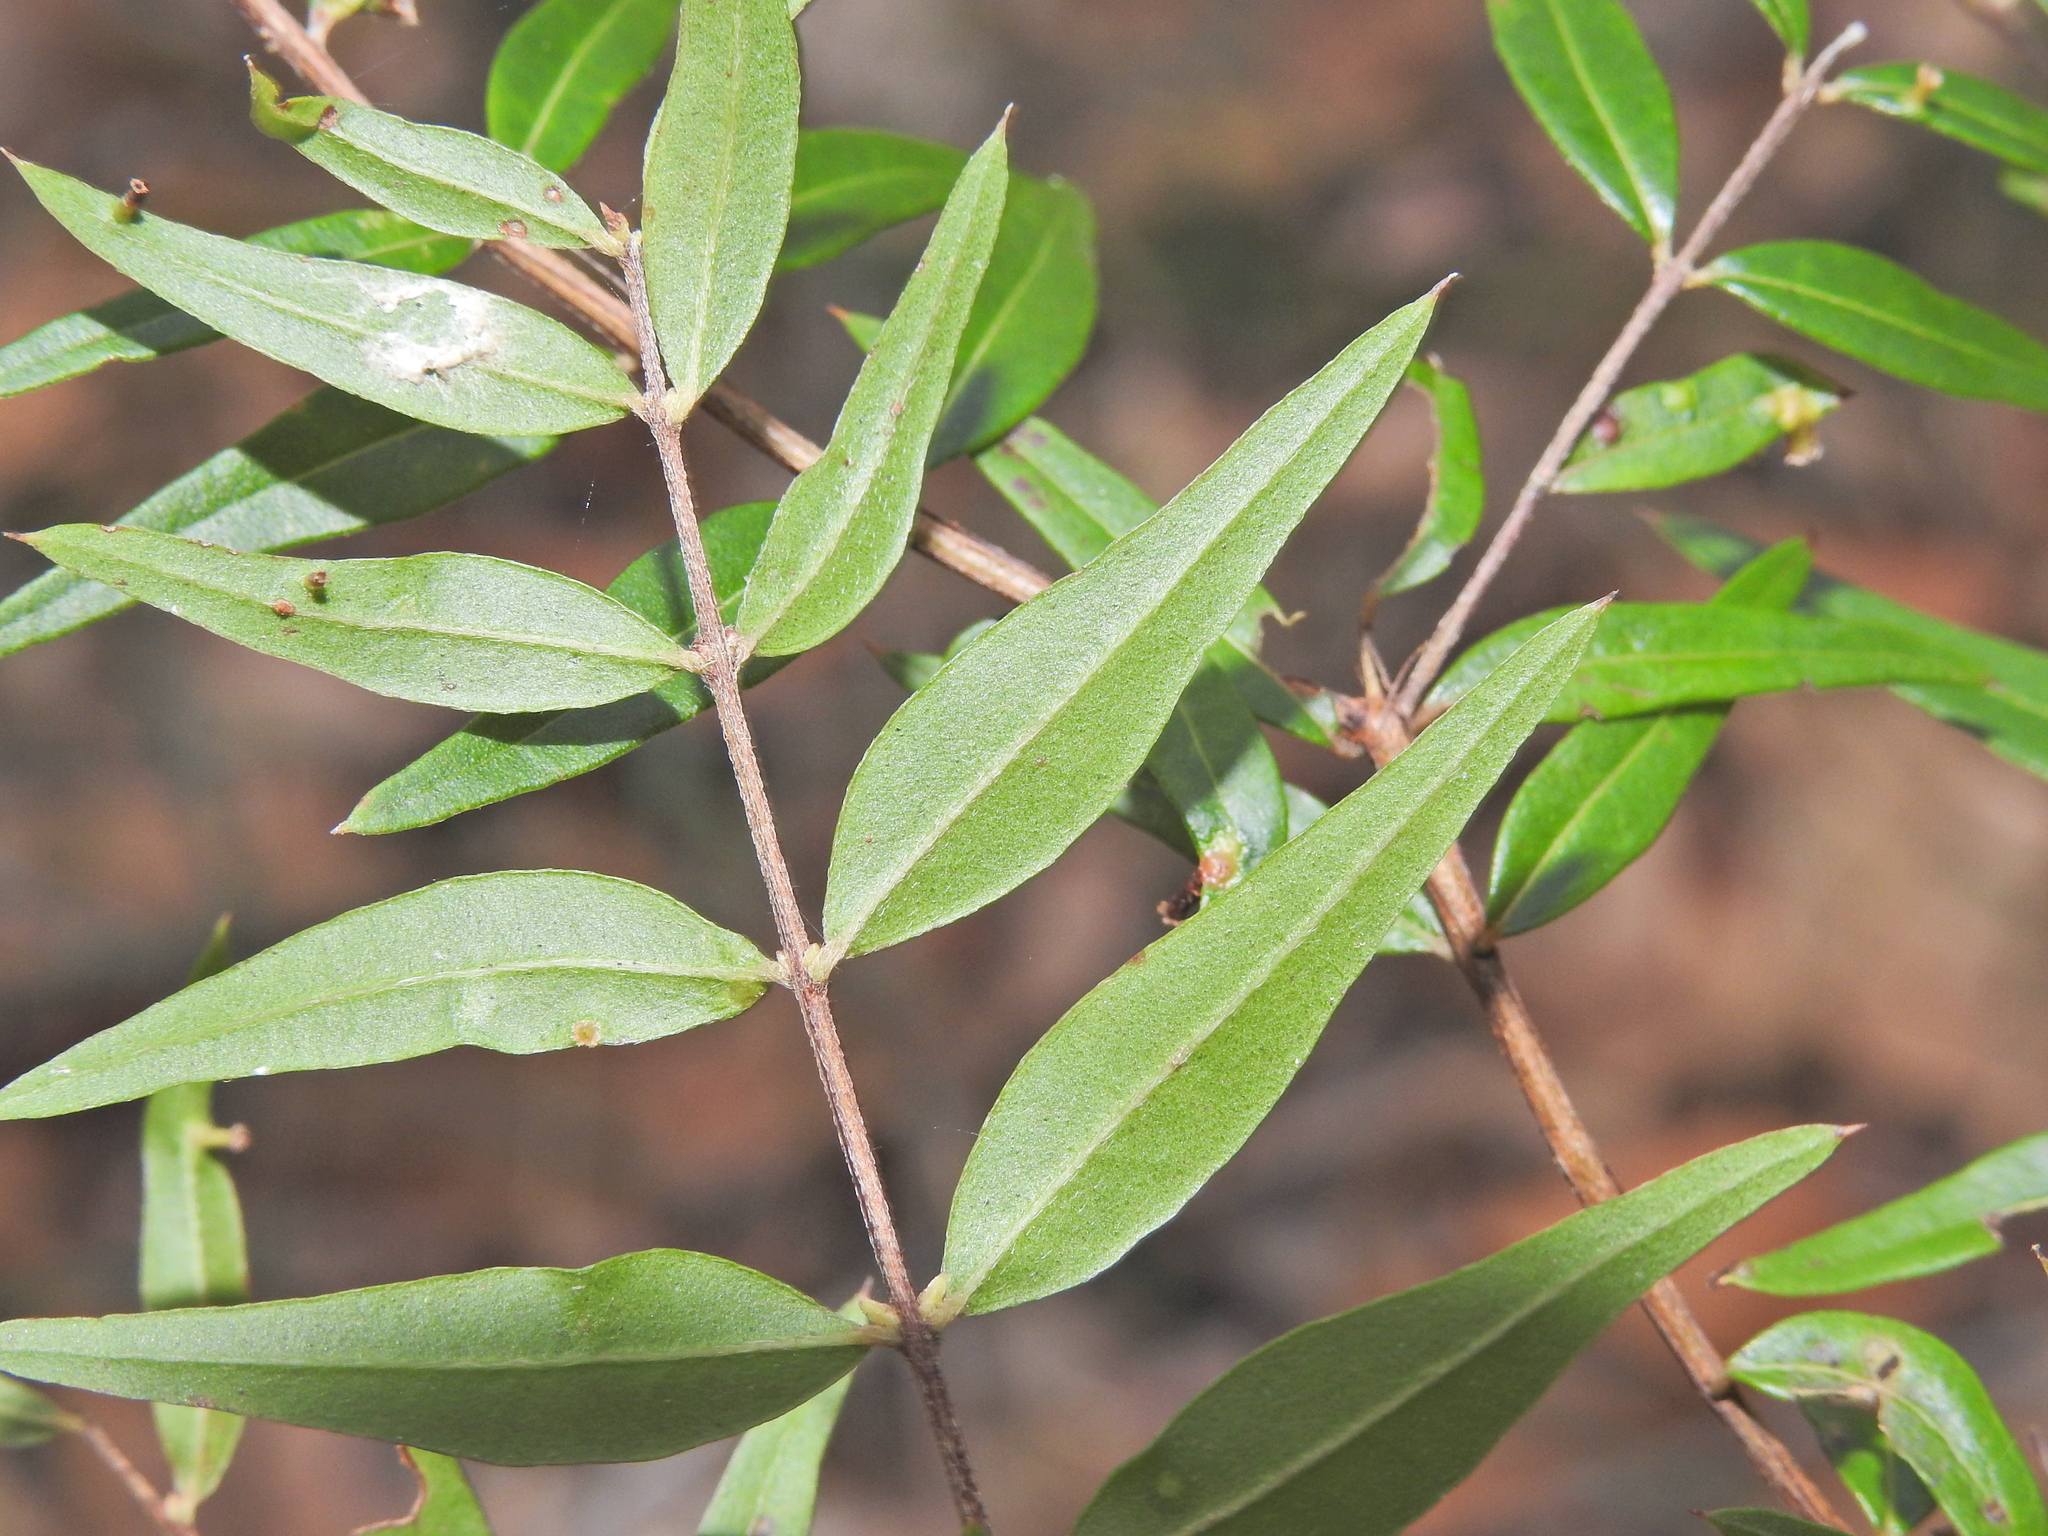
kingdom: Plantae
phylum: Tracheophyta
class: Magnoliopsida
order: Myrtales
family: Myrtaceae
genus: Austromyrtus
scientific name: Austromyrtus glabra
